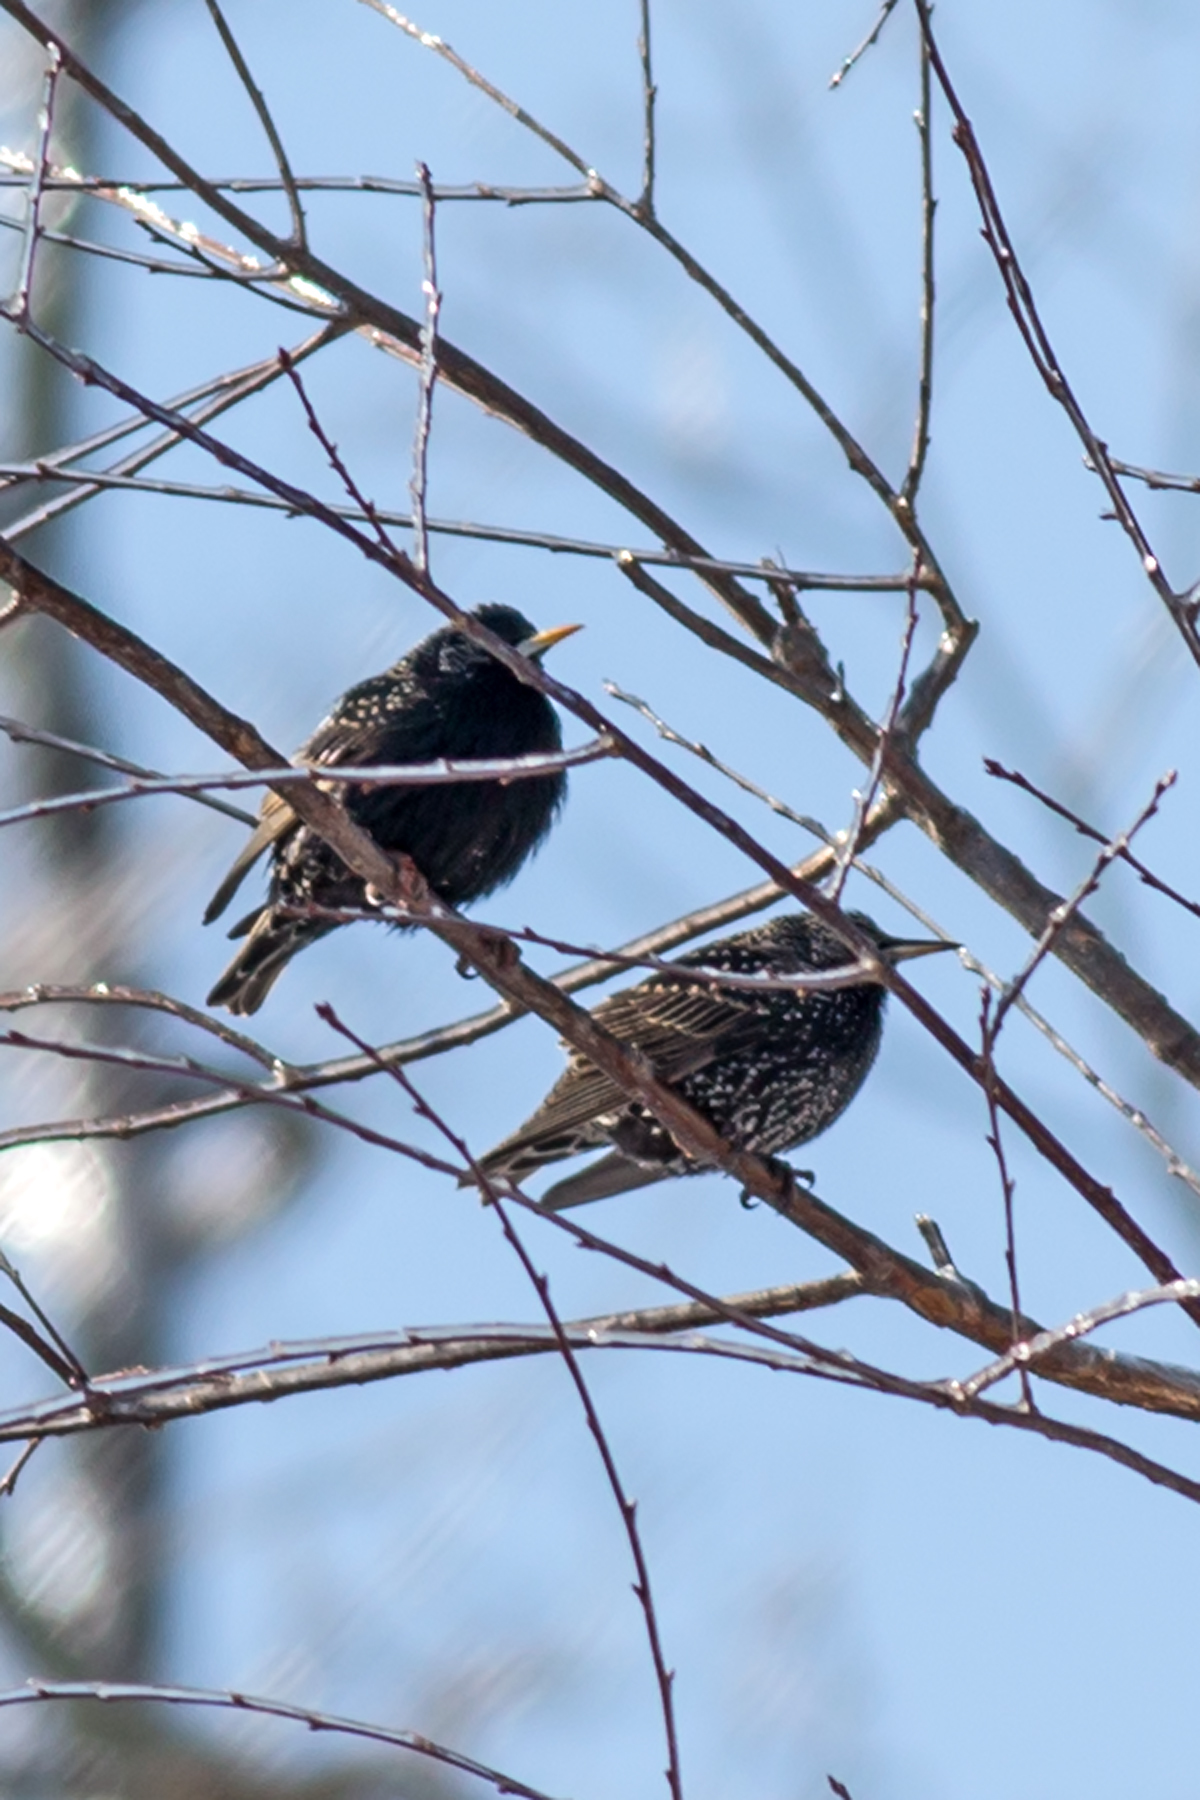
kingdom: Animalia
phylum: Chordata
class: Aves
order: Passeriformes
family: Sturnidae
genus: Sturnus
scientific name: Sturnus vulgaris
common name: Common starling
